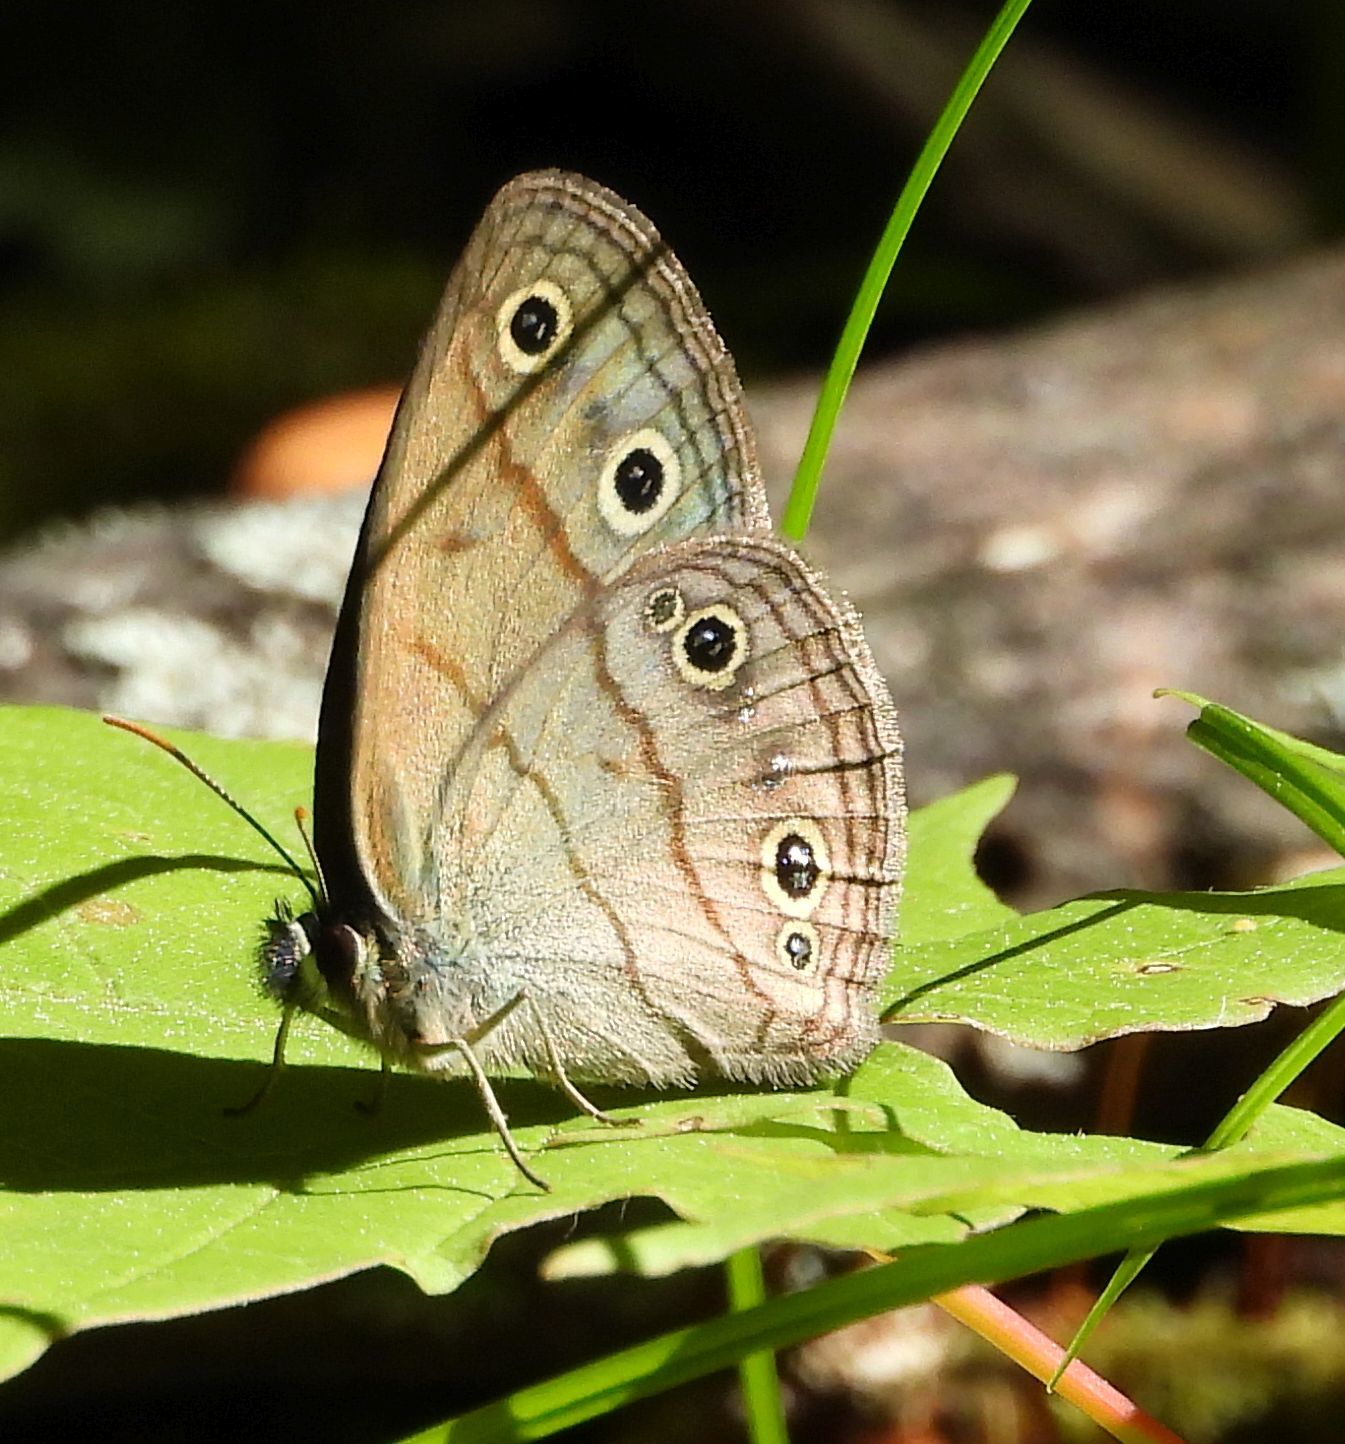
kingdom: Animalia
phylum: Arthropoda
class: Insecta
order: Lepidoptera
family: Nymphalidae
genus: Euptychia
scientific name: Euptychia cymela
